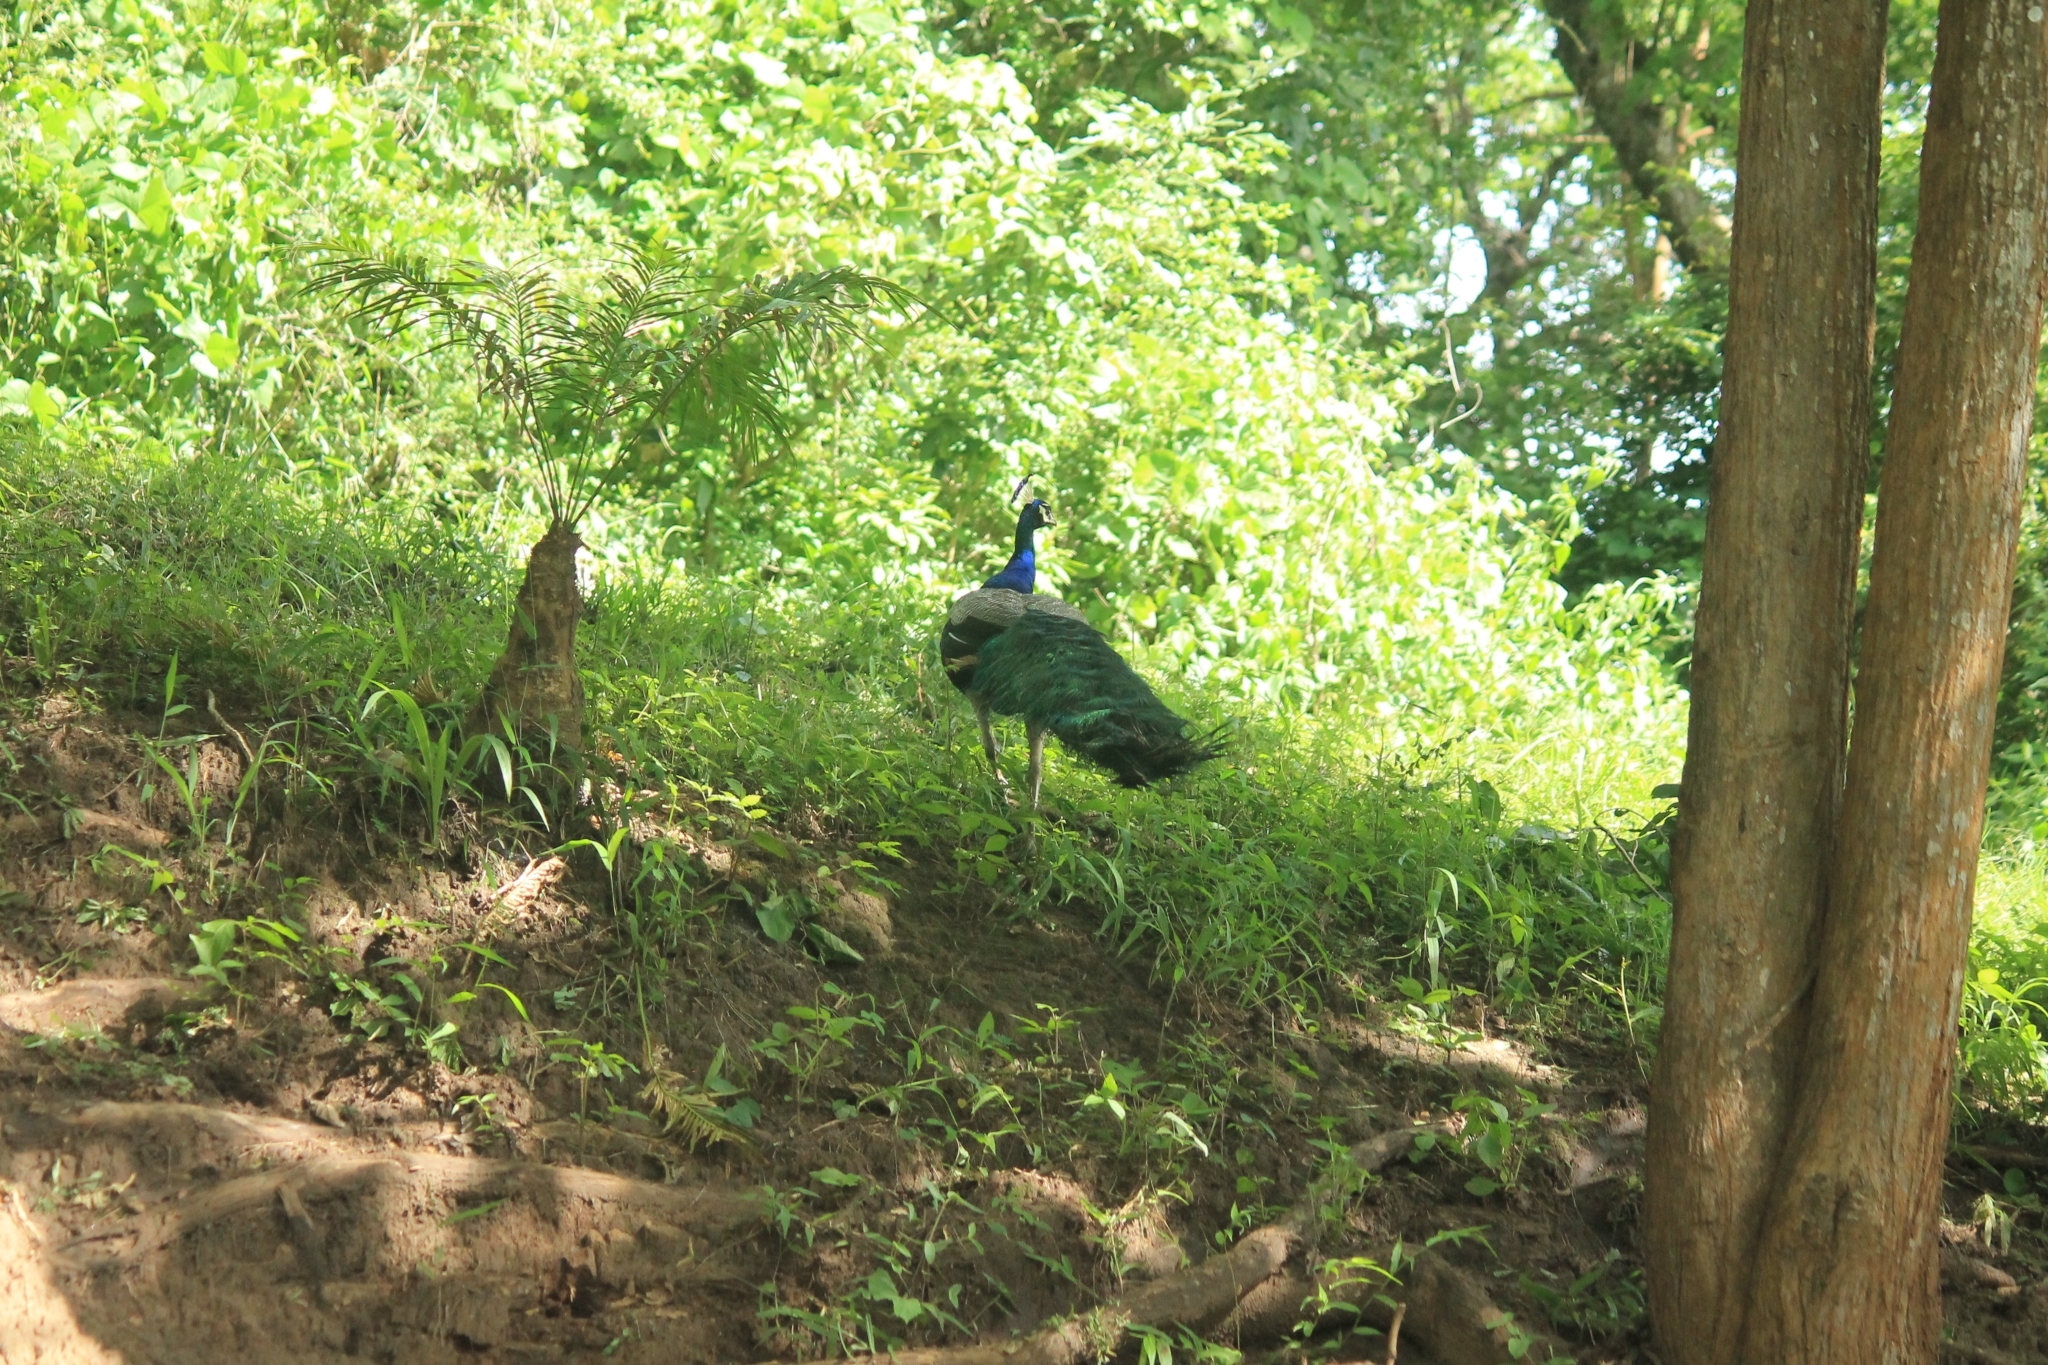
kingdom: Animalia
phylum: Chordata
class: Aves
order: Galliformes
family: Phasianidae
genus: Pavo
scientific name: Pavo cristatus
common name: Indian peafowl
